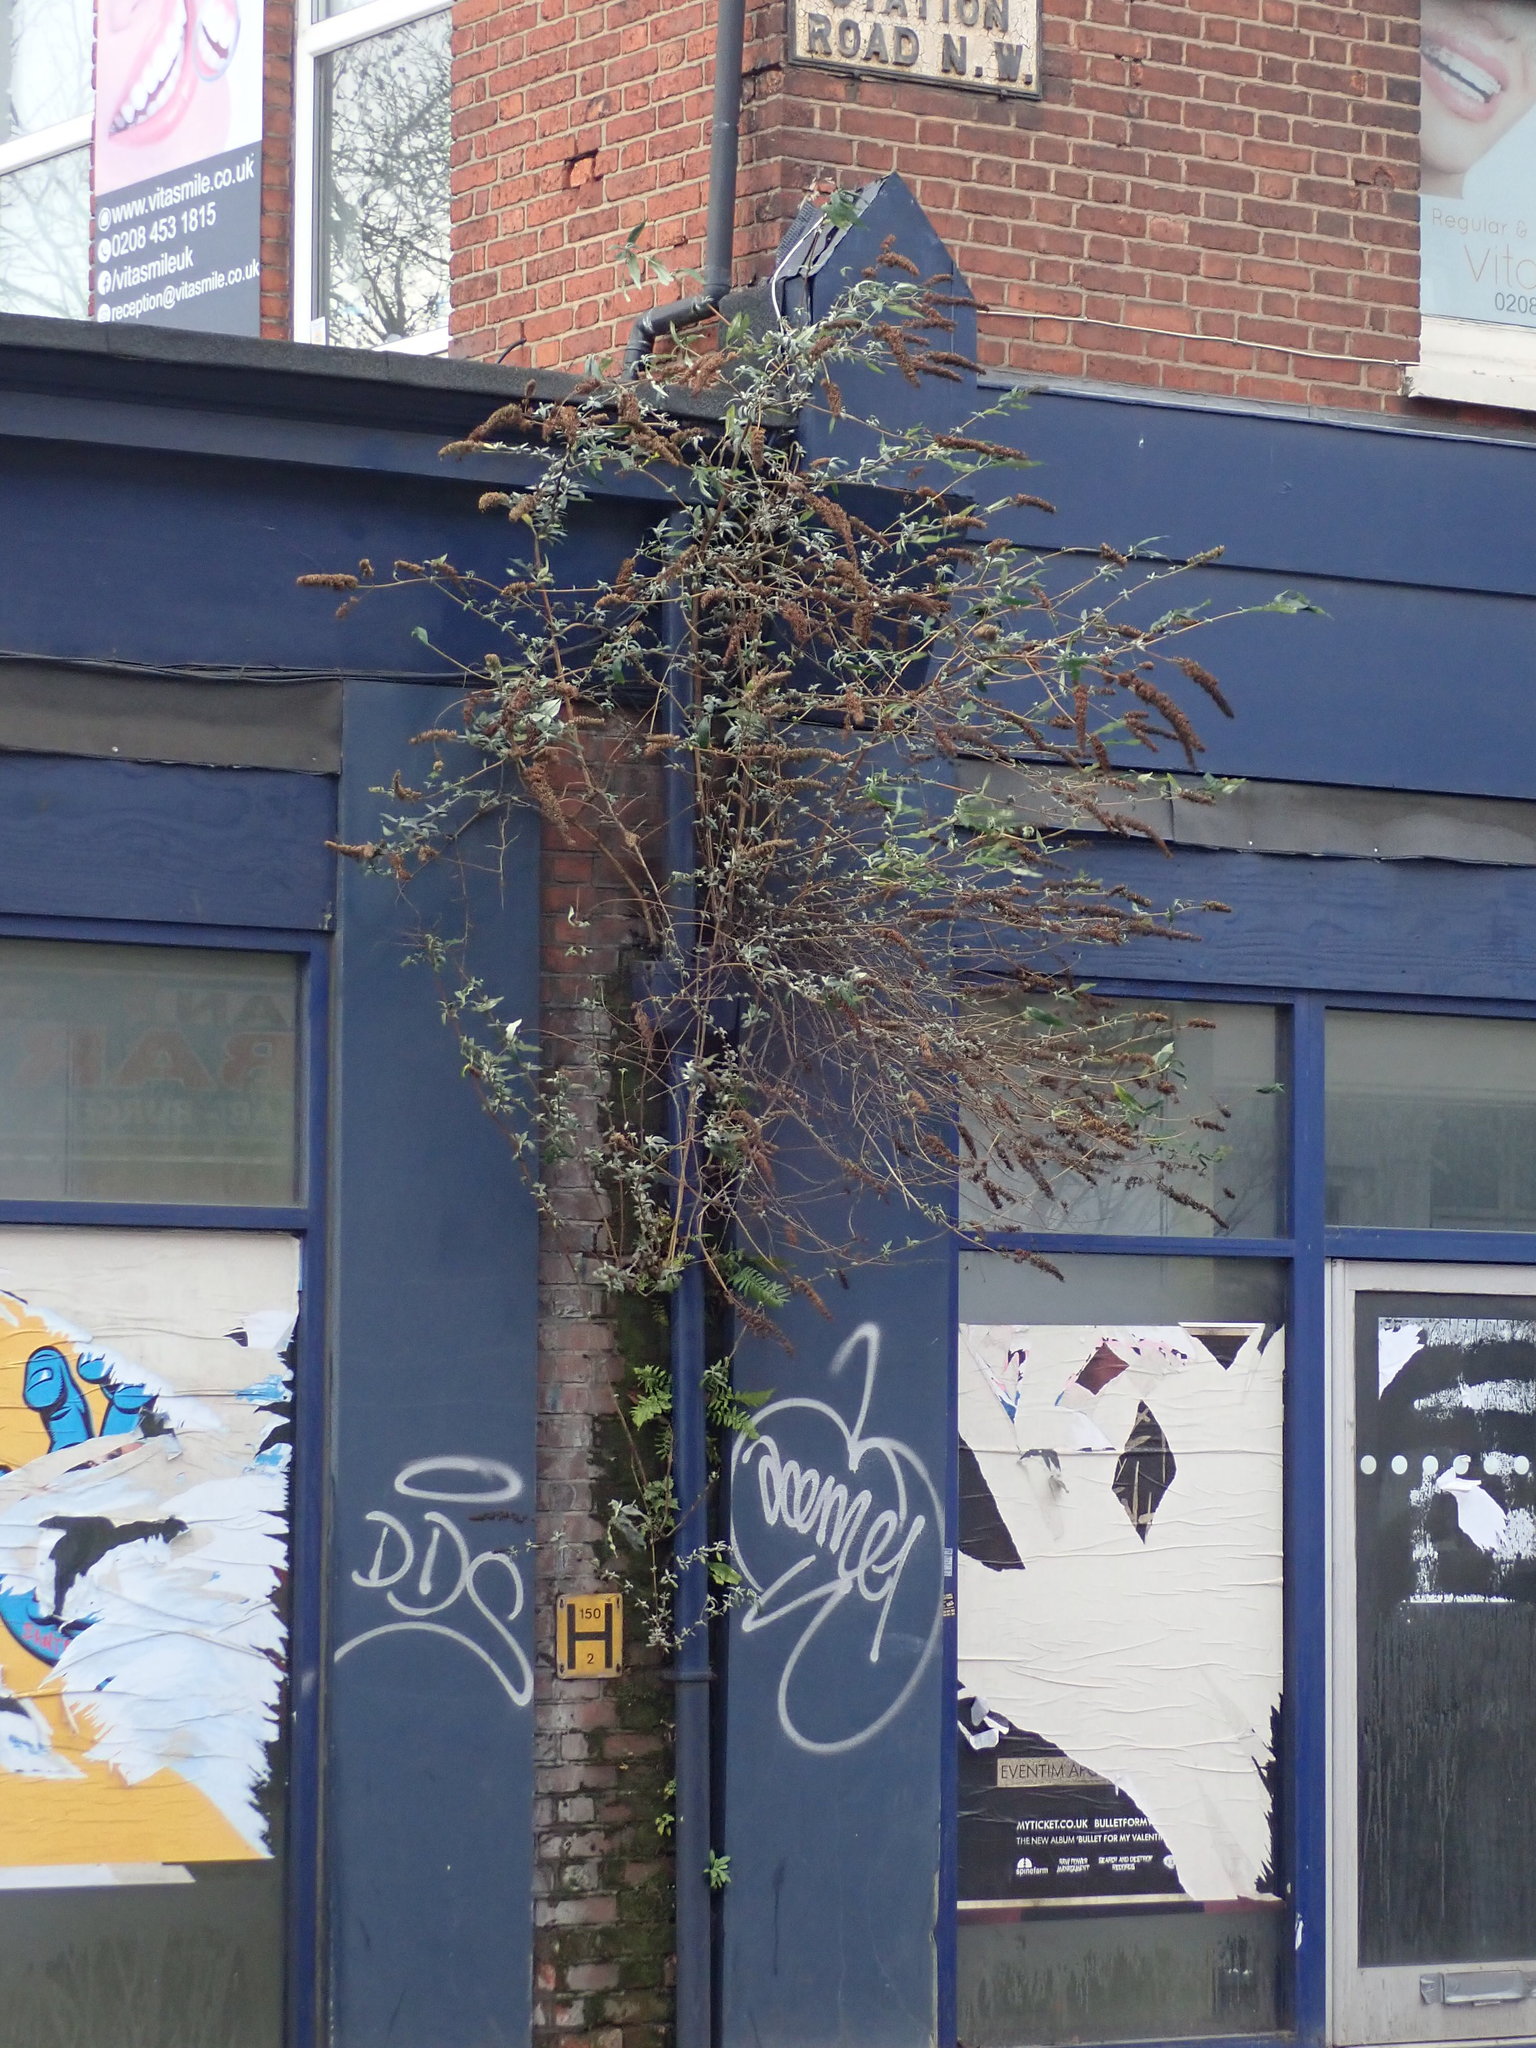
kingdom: Plantae
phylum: Tracheophyta
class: Magnoliopsida
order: Lamiales
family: Scrophulariaceae
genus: Buddleja
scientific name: Buddleja davidii
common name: Butterfly-bush
